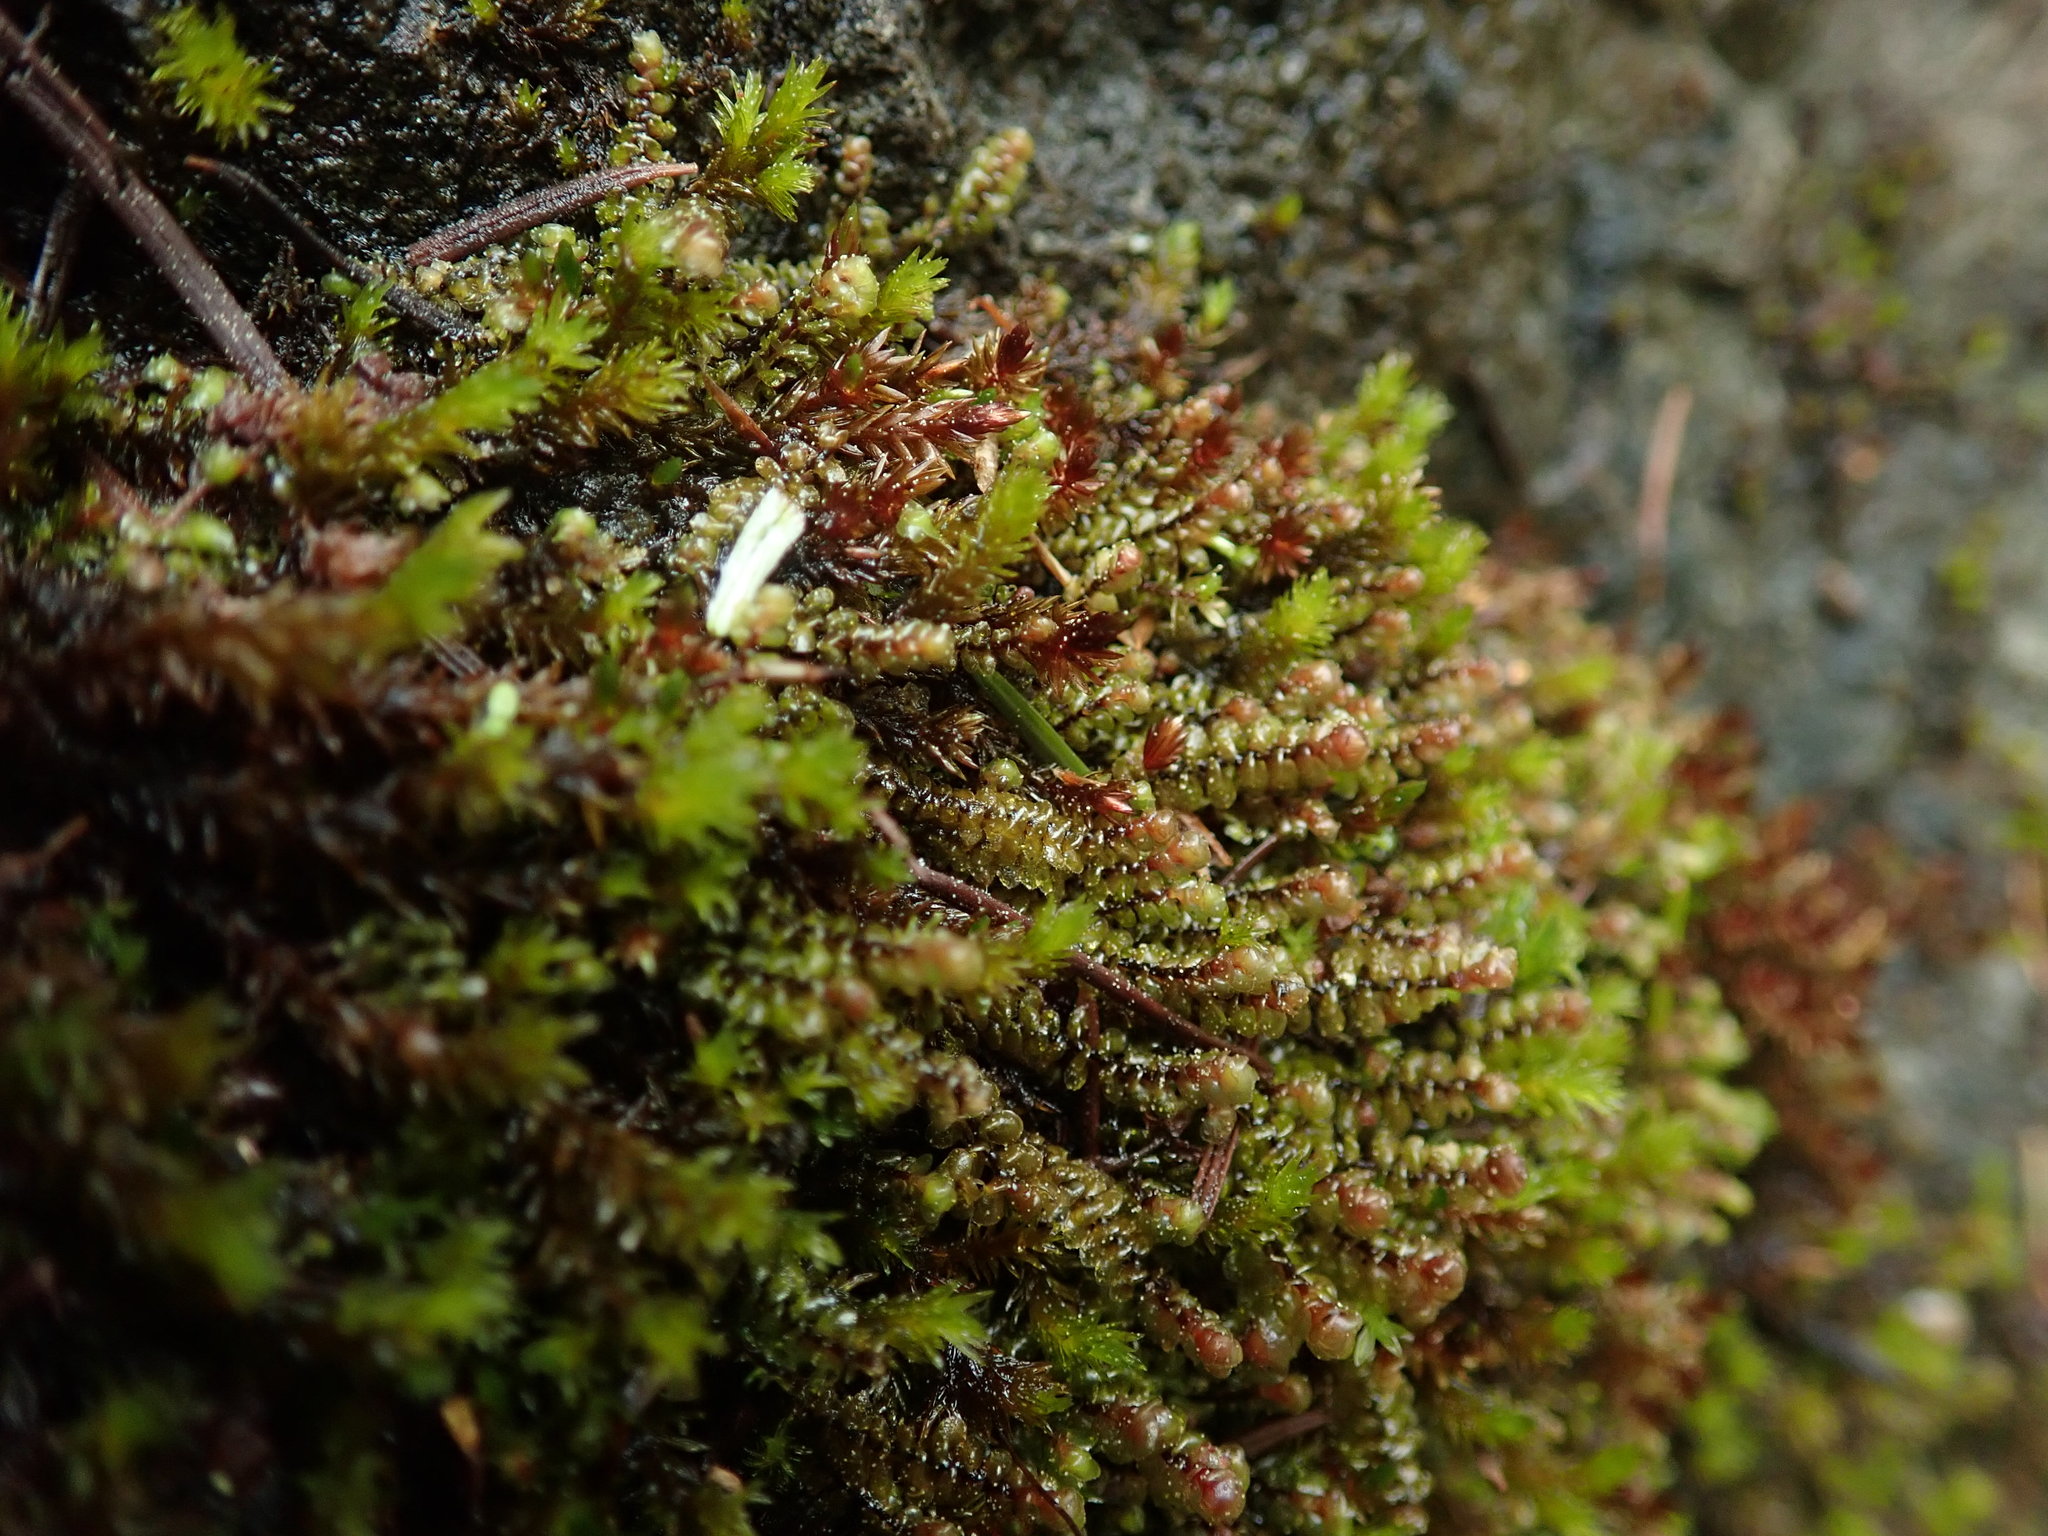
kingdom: Plantae
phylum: Marchantiophyta
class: Jungermanniopsida
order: Jungermanniales
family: Scapaniaceae
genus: Scapania
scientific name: Scapania americana
